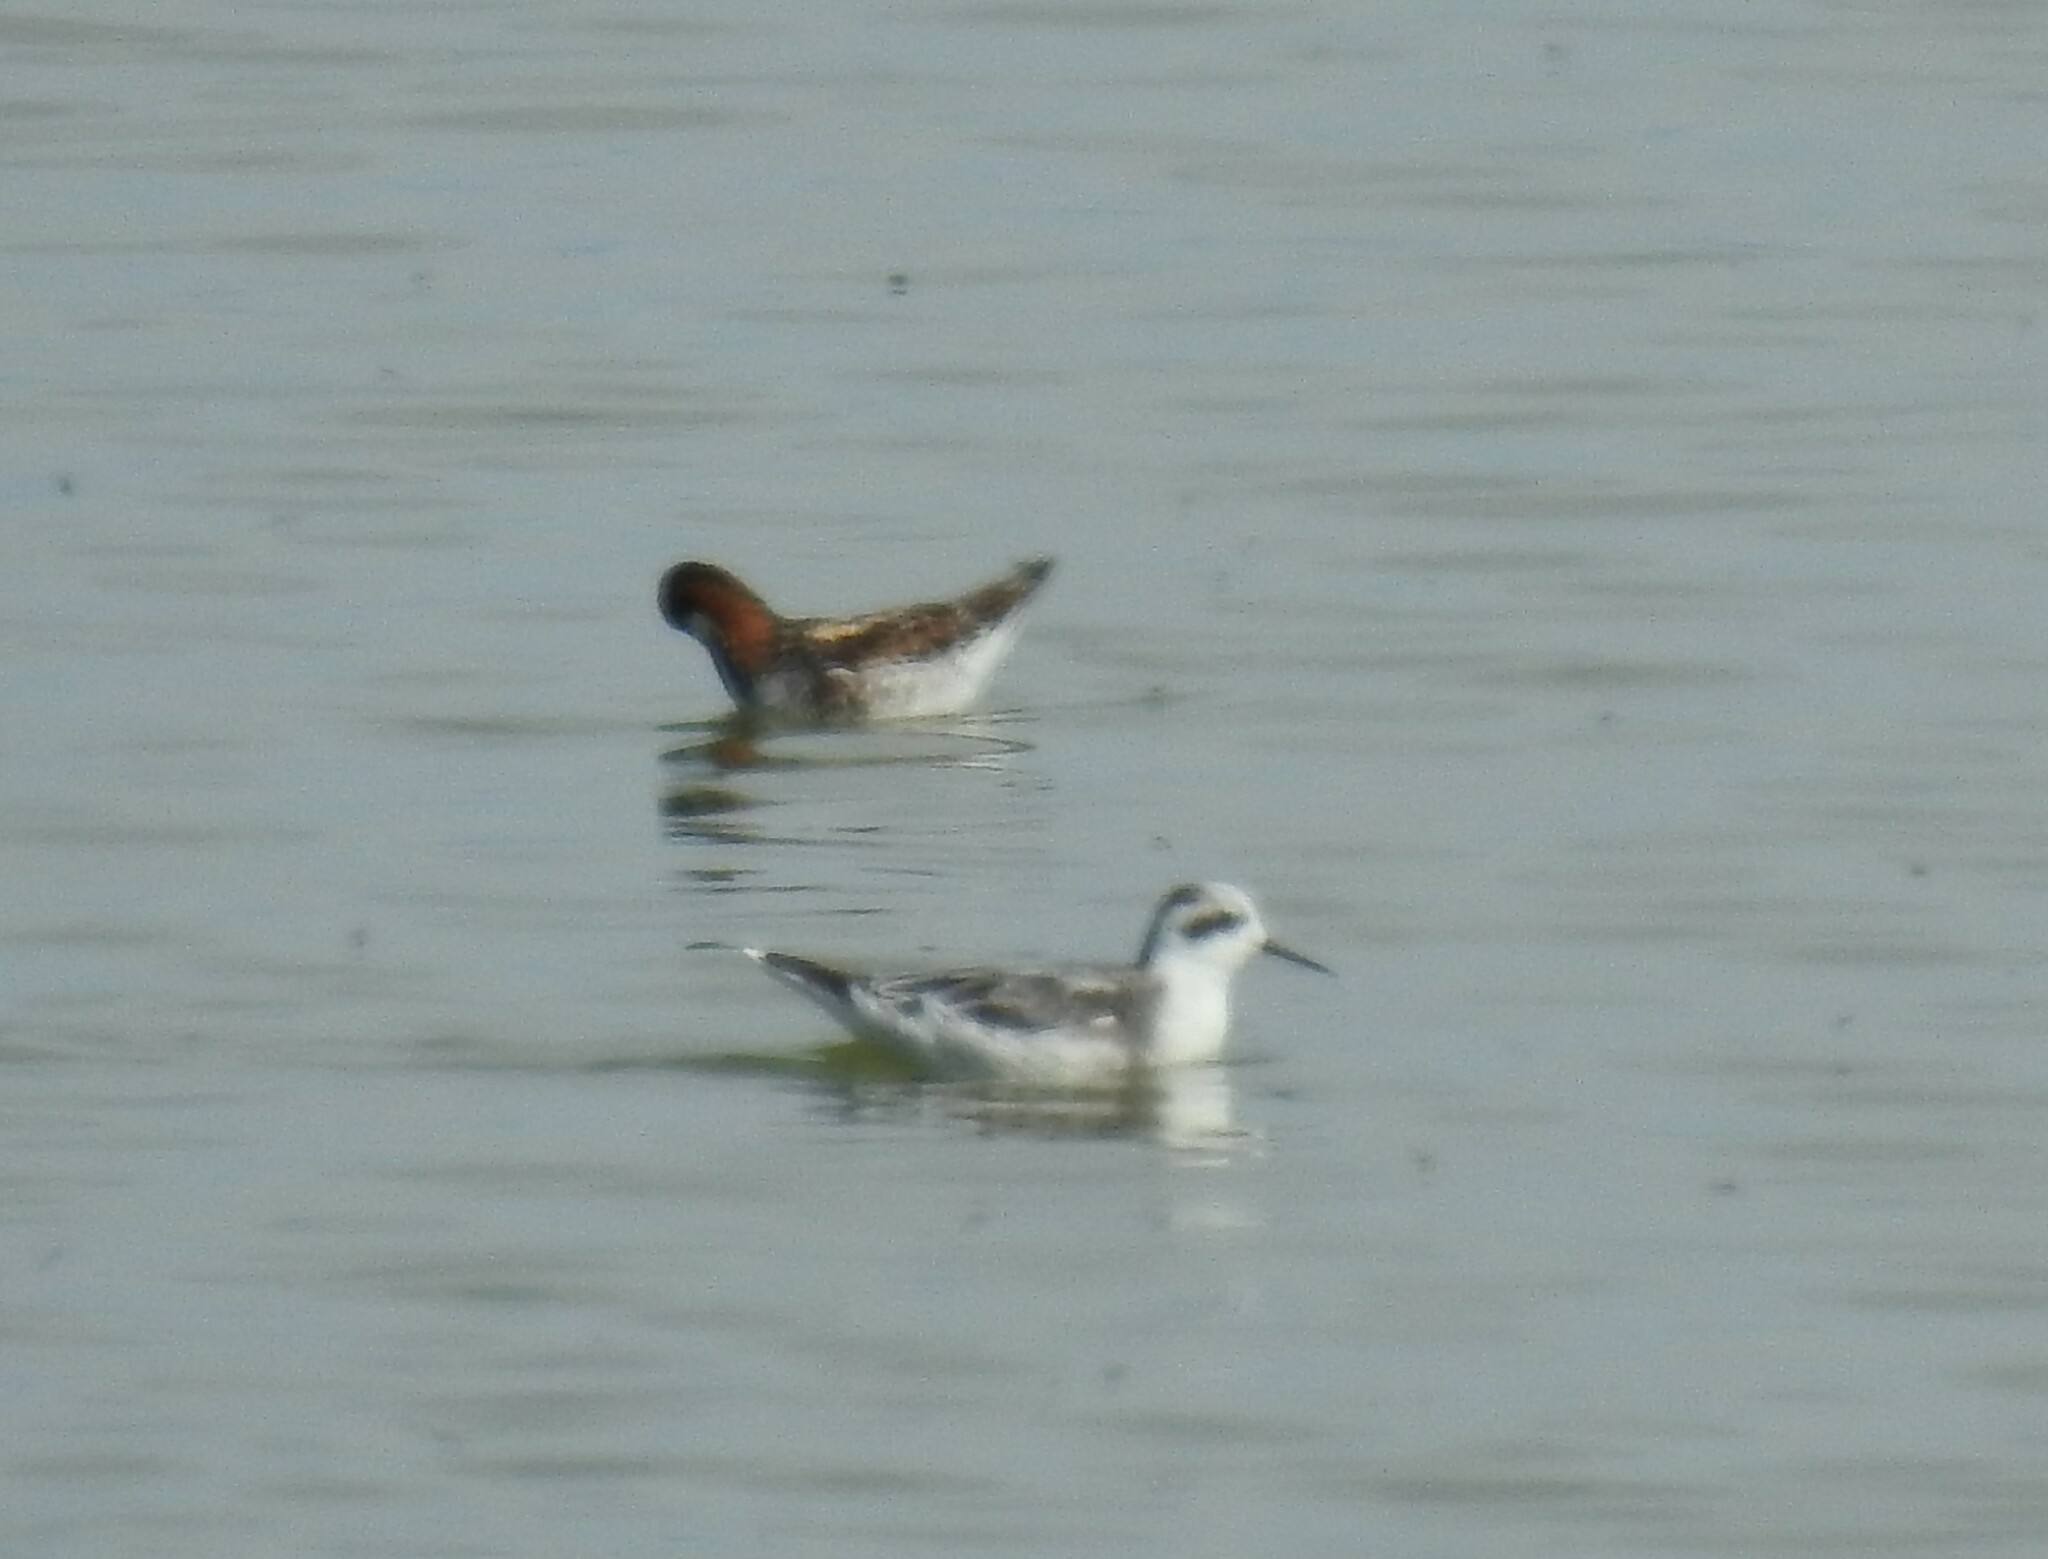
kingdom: Animalia
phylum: Chordata
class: Aves
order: Charadriiformes
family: Scolopacidae
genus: Phalaropus
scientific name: Phalaropus lobatus
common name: Red-necked phalarope
